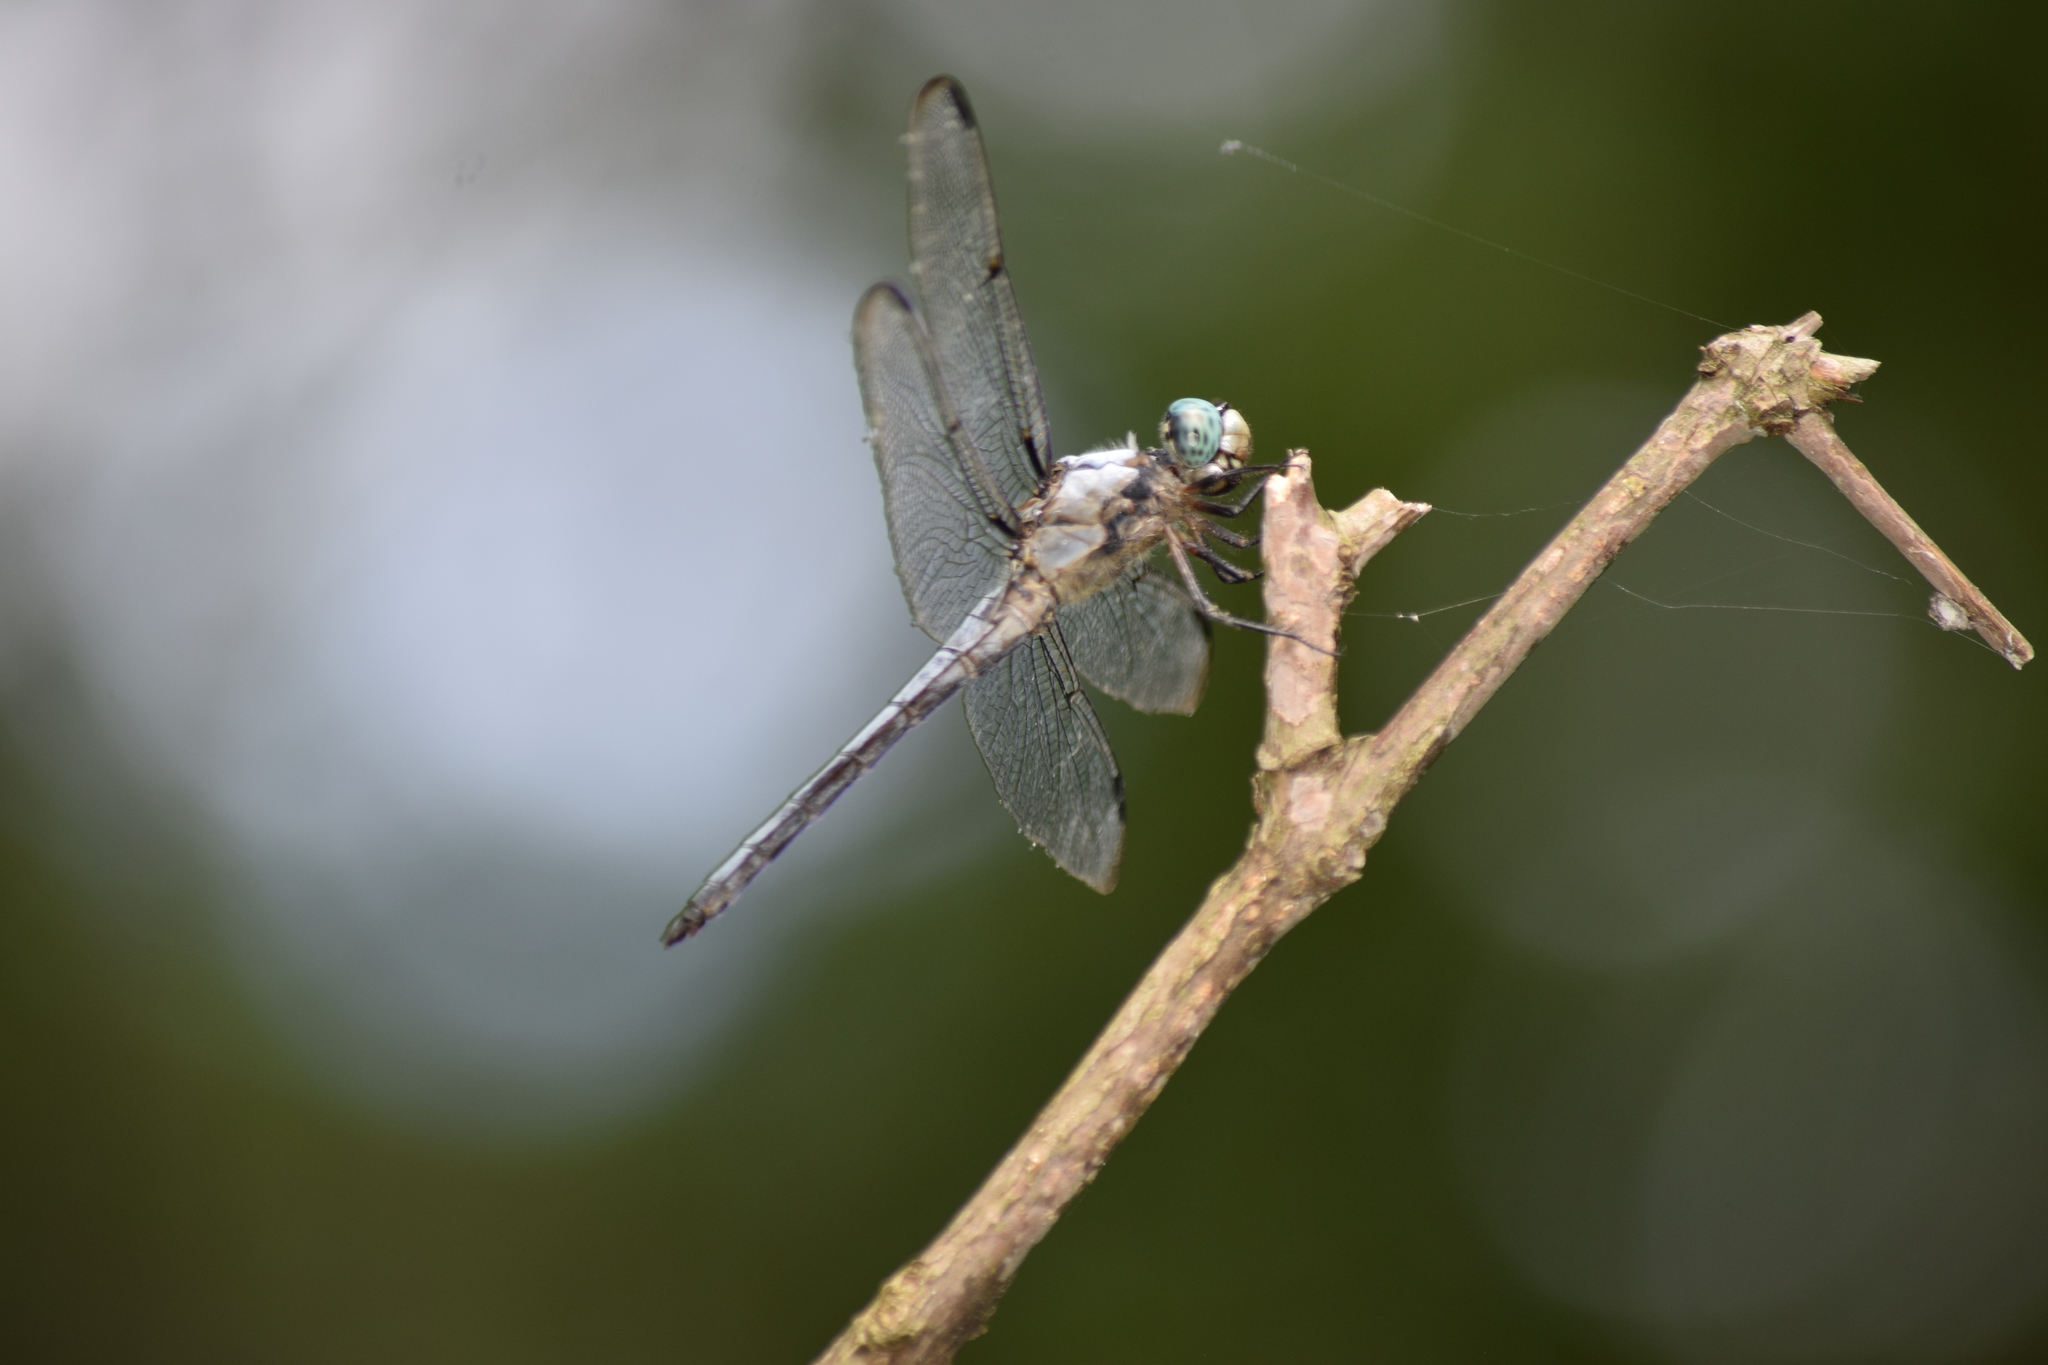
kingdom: Animalia
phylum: Arthropoda
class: Insecta
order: Odonata
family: Libellulidae
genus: Libellula
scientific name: Libellula vibrans
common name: Great blue skimmer
